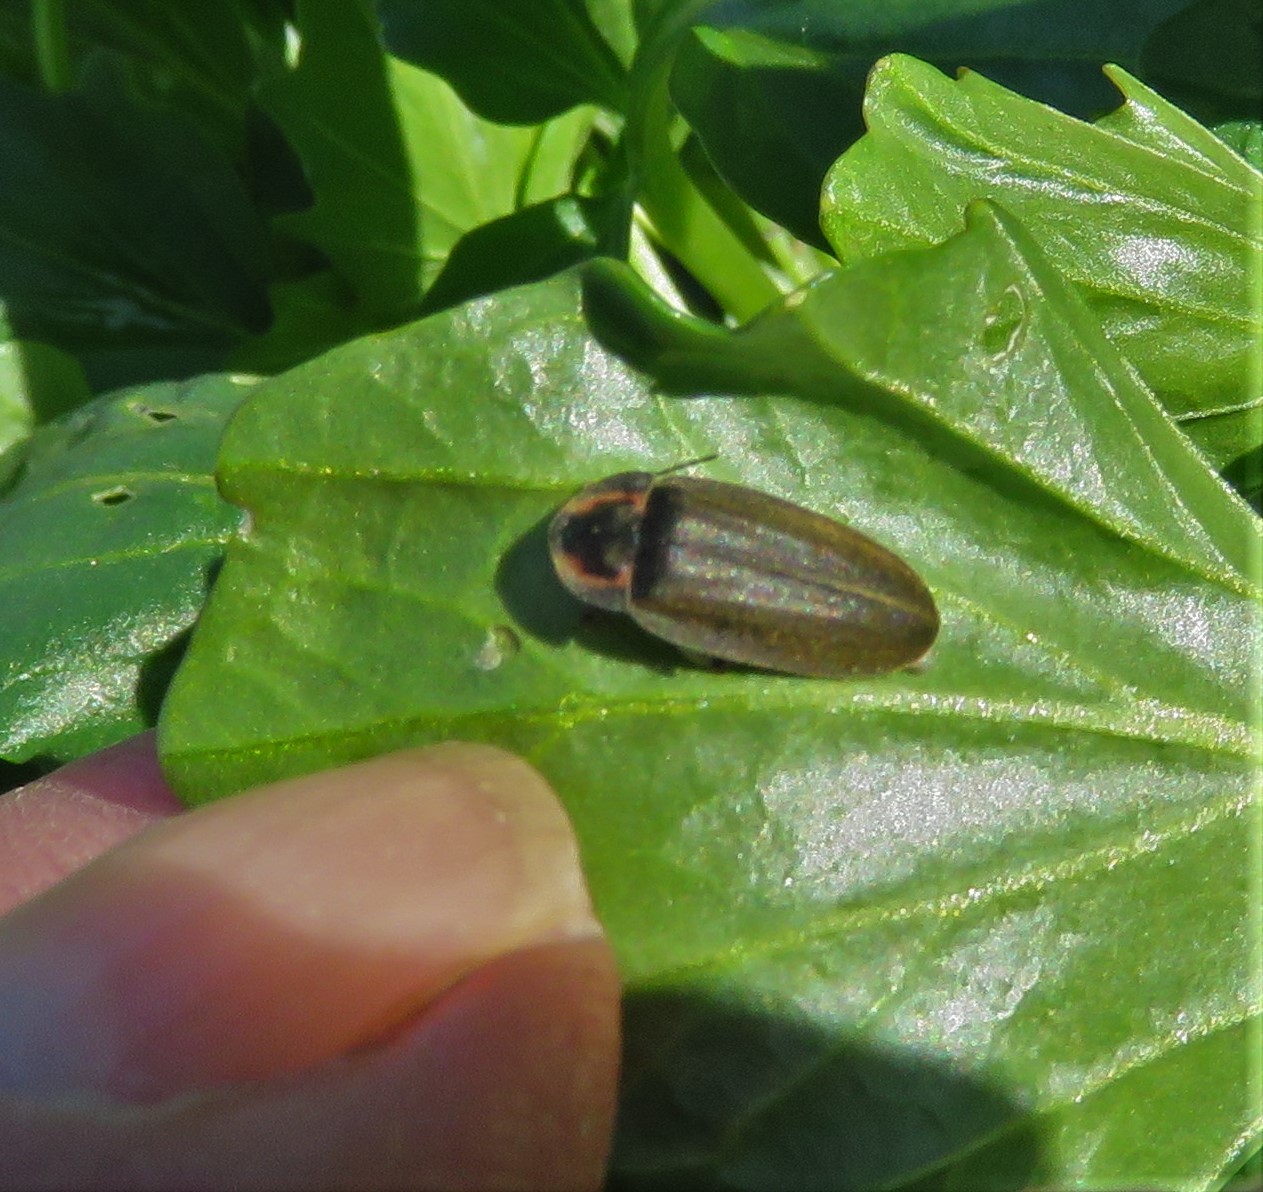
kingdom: Animalia
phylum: Arthropoda
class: Insecta
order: Coleoptera
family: Lampyridae
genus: Photinus
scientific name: Photinus corrusca
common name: Winter firefly
